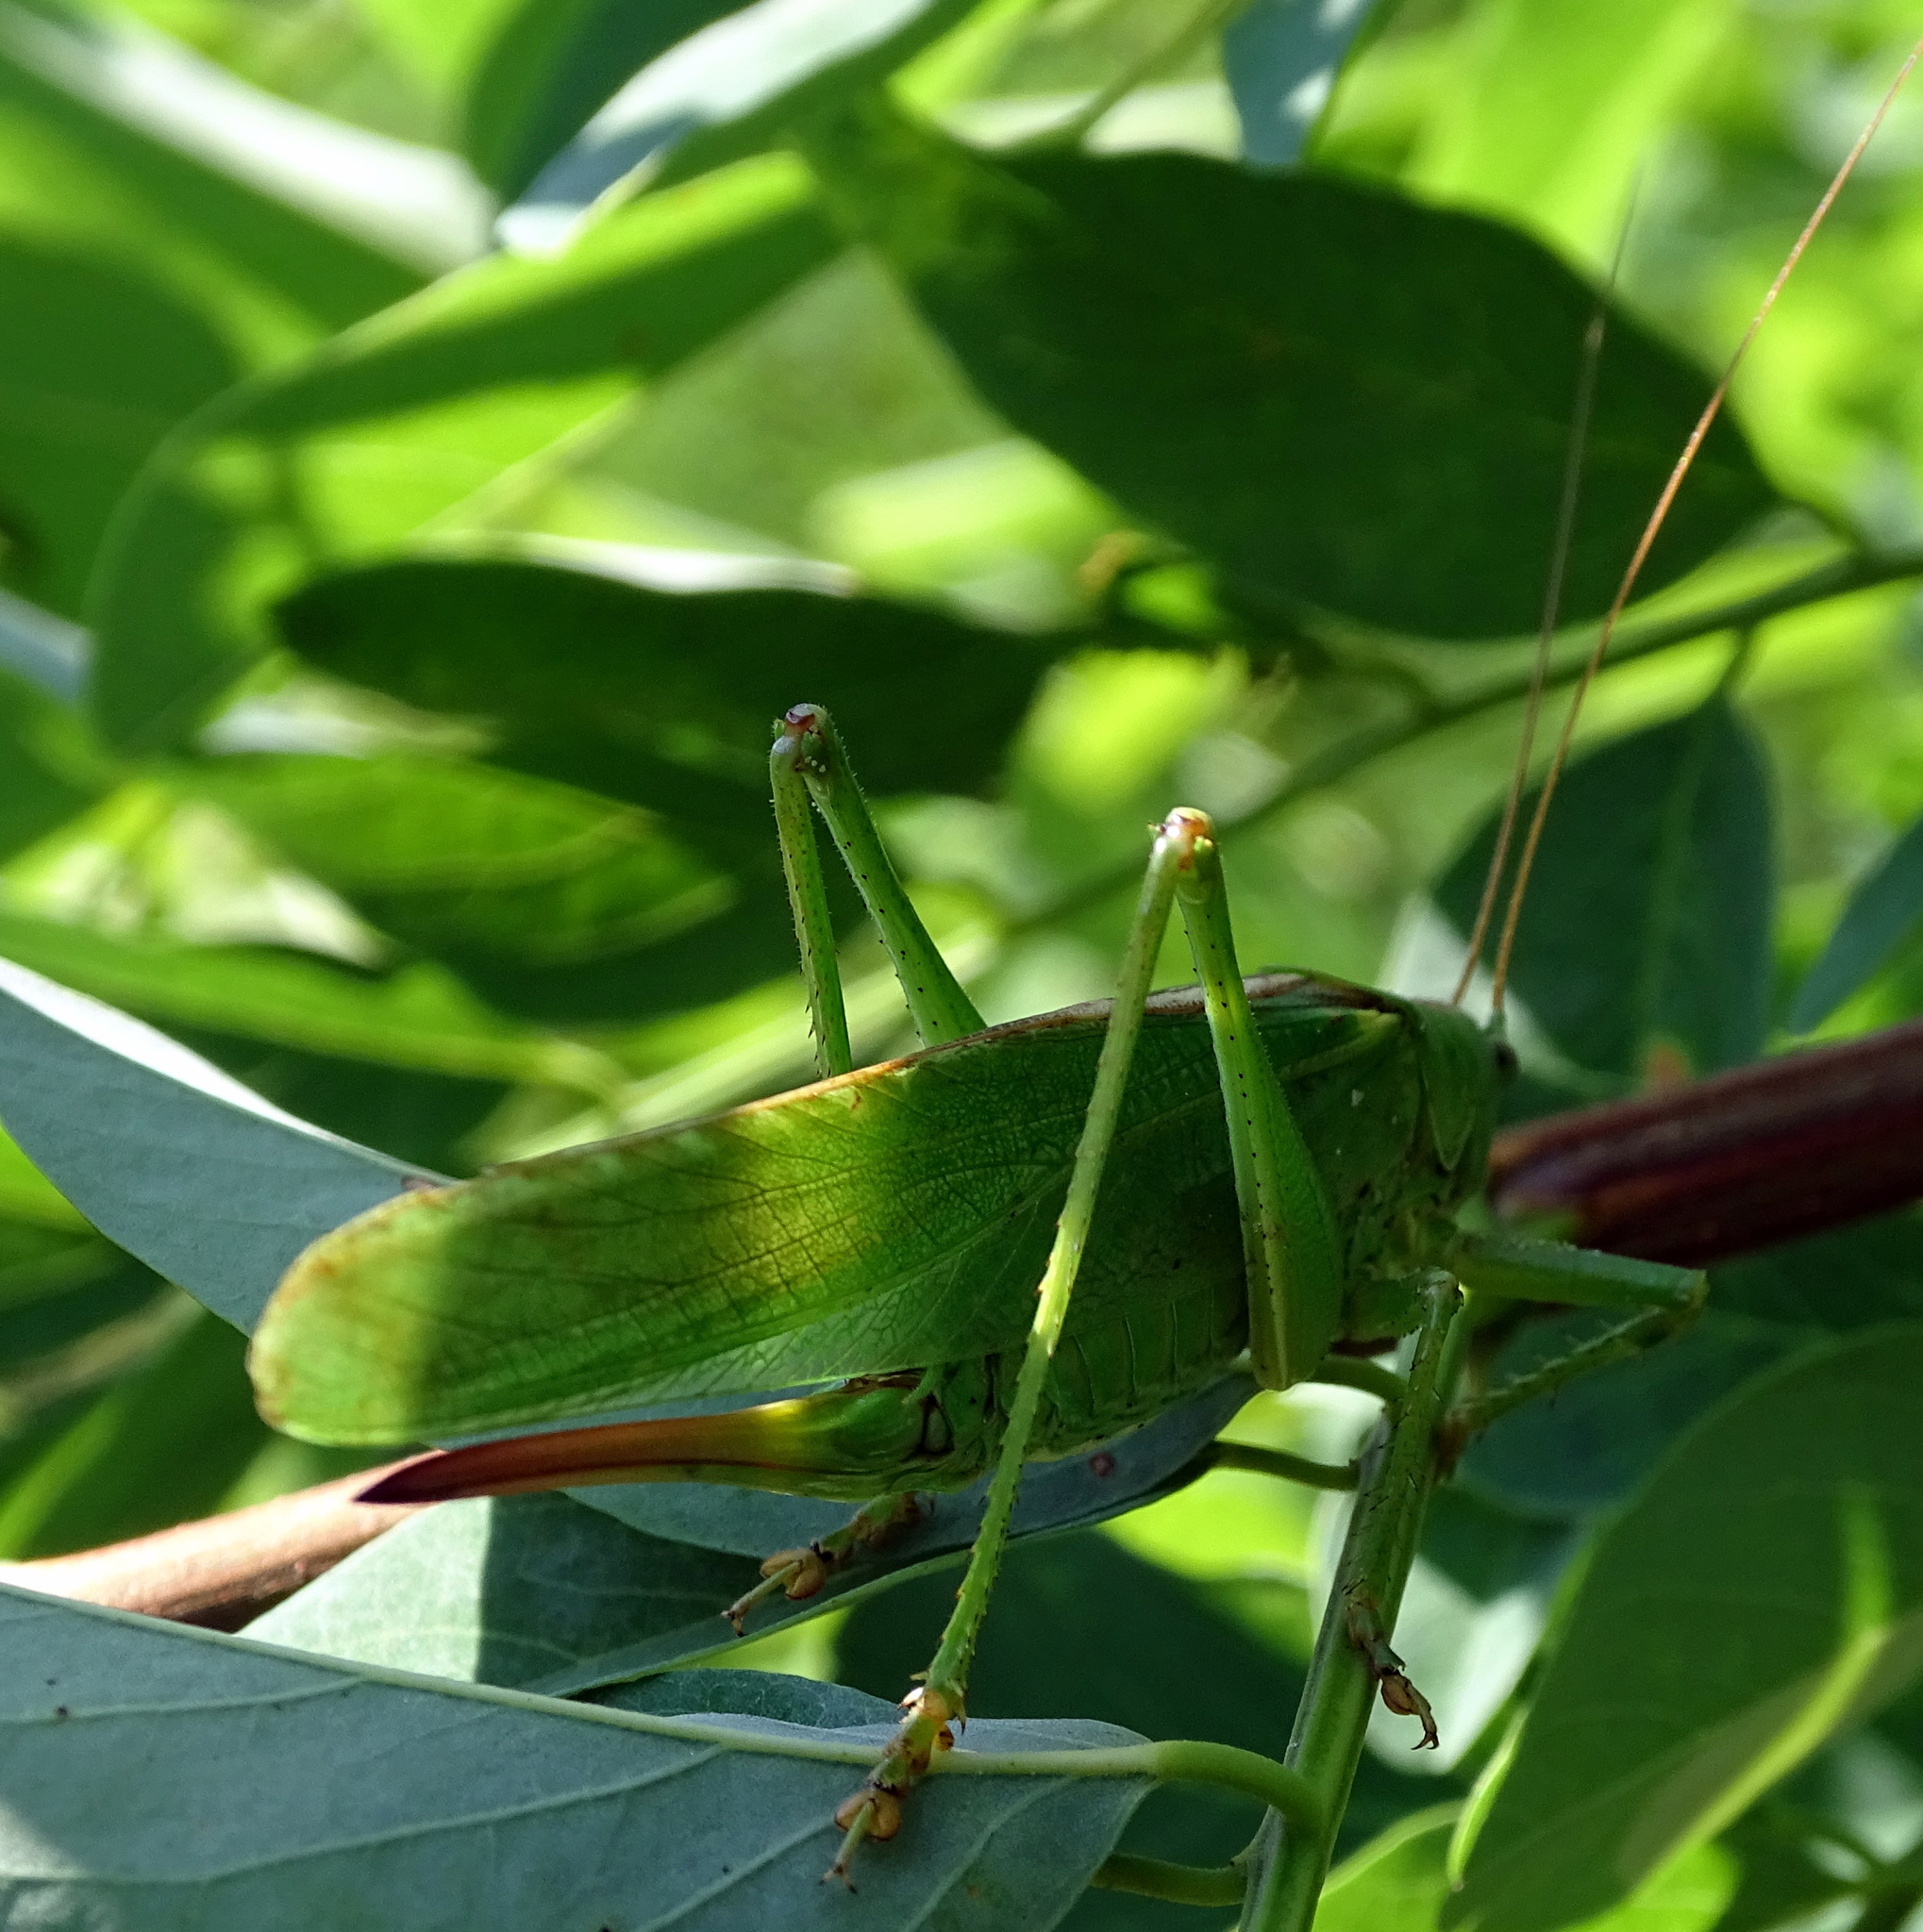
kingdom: Animalia
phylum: Arthropoda
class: Insecta
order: Orthoptera
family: Tettigoniidae
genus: Tettigonia
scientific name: Tettigonia viridissima
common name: Great green bush-cricket
